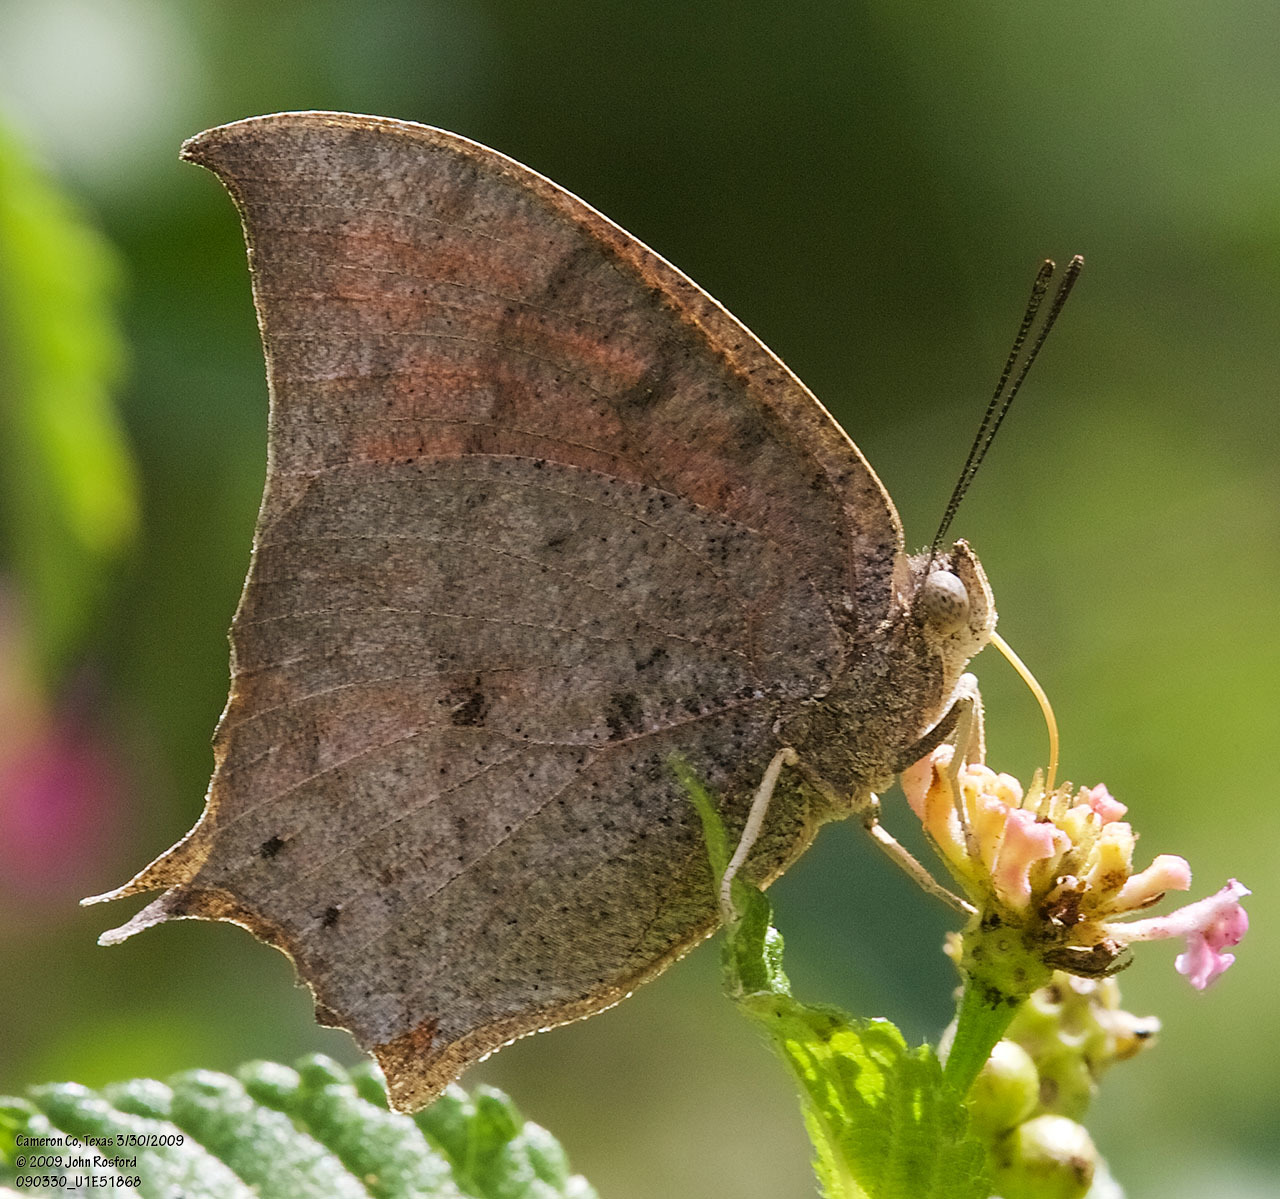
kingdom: Animalia
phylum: Arthropoda
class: Insecta
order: Lepidoptera
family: Nymphalidae
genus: Anaea
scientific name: Anaea aidea
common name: Tropical leafwing
